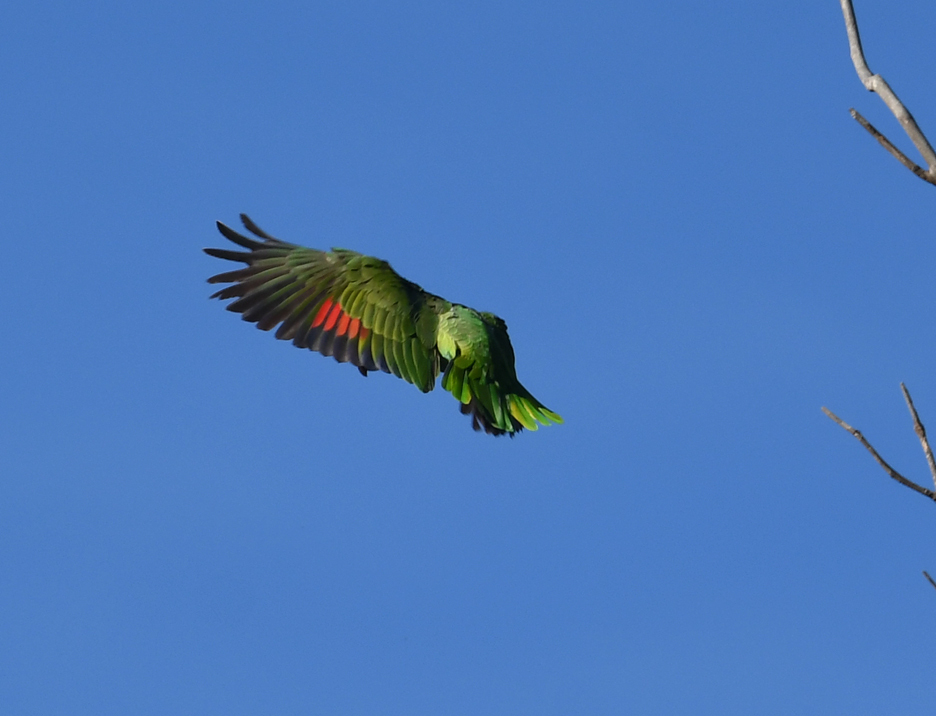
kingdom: Animalia
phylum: Chordata
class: Aves
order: Psittaciformes
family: Psittacidae
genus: Amazona
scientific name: Amazona finschi
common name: Lilac-crowned amazon
